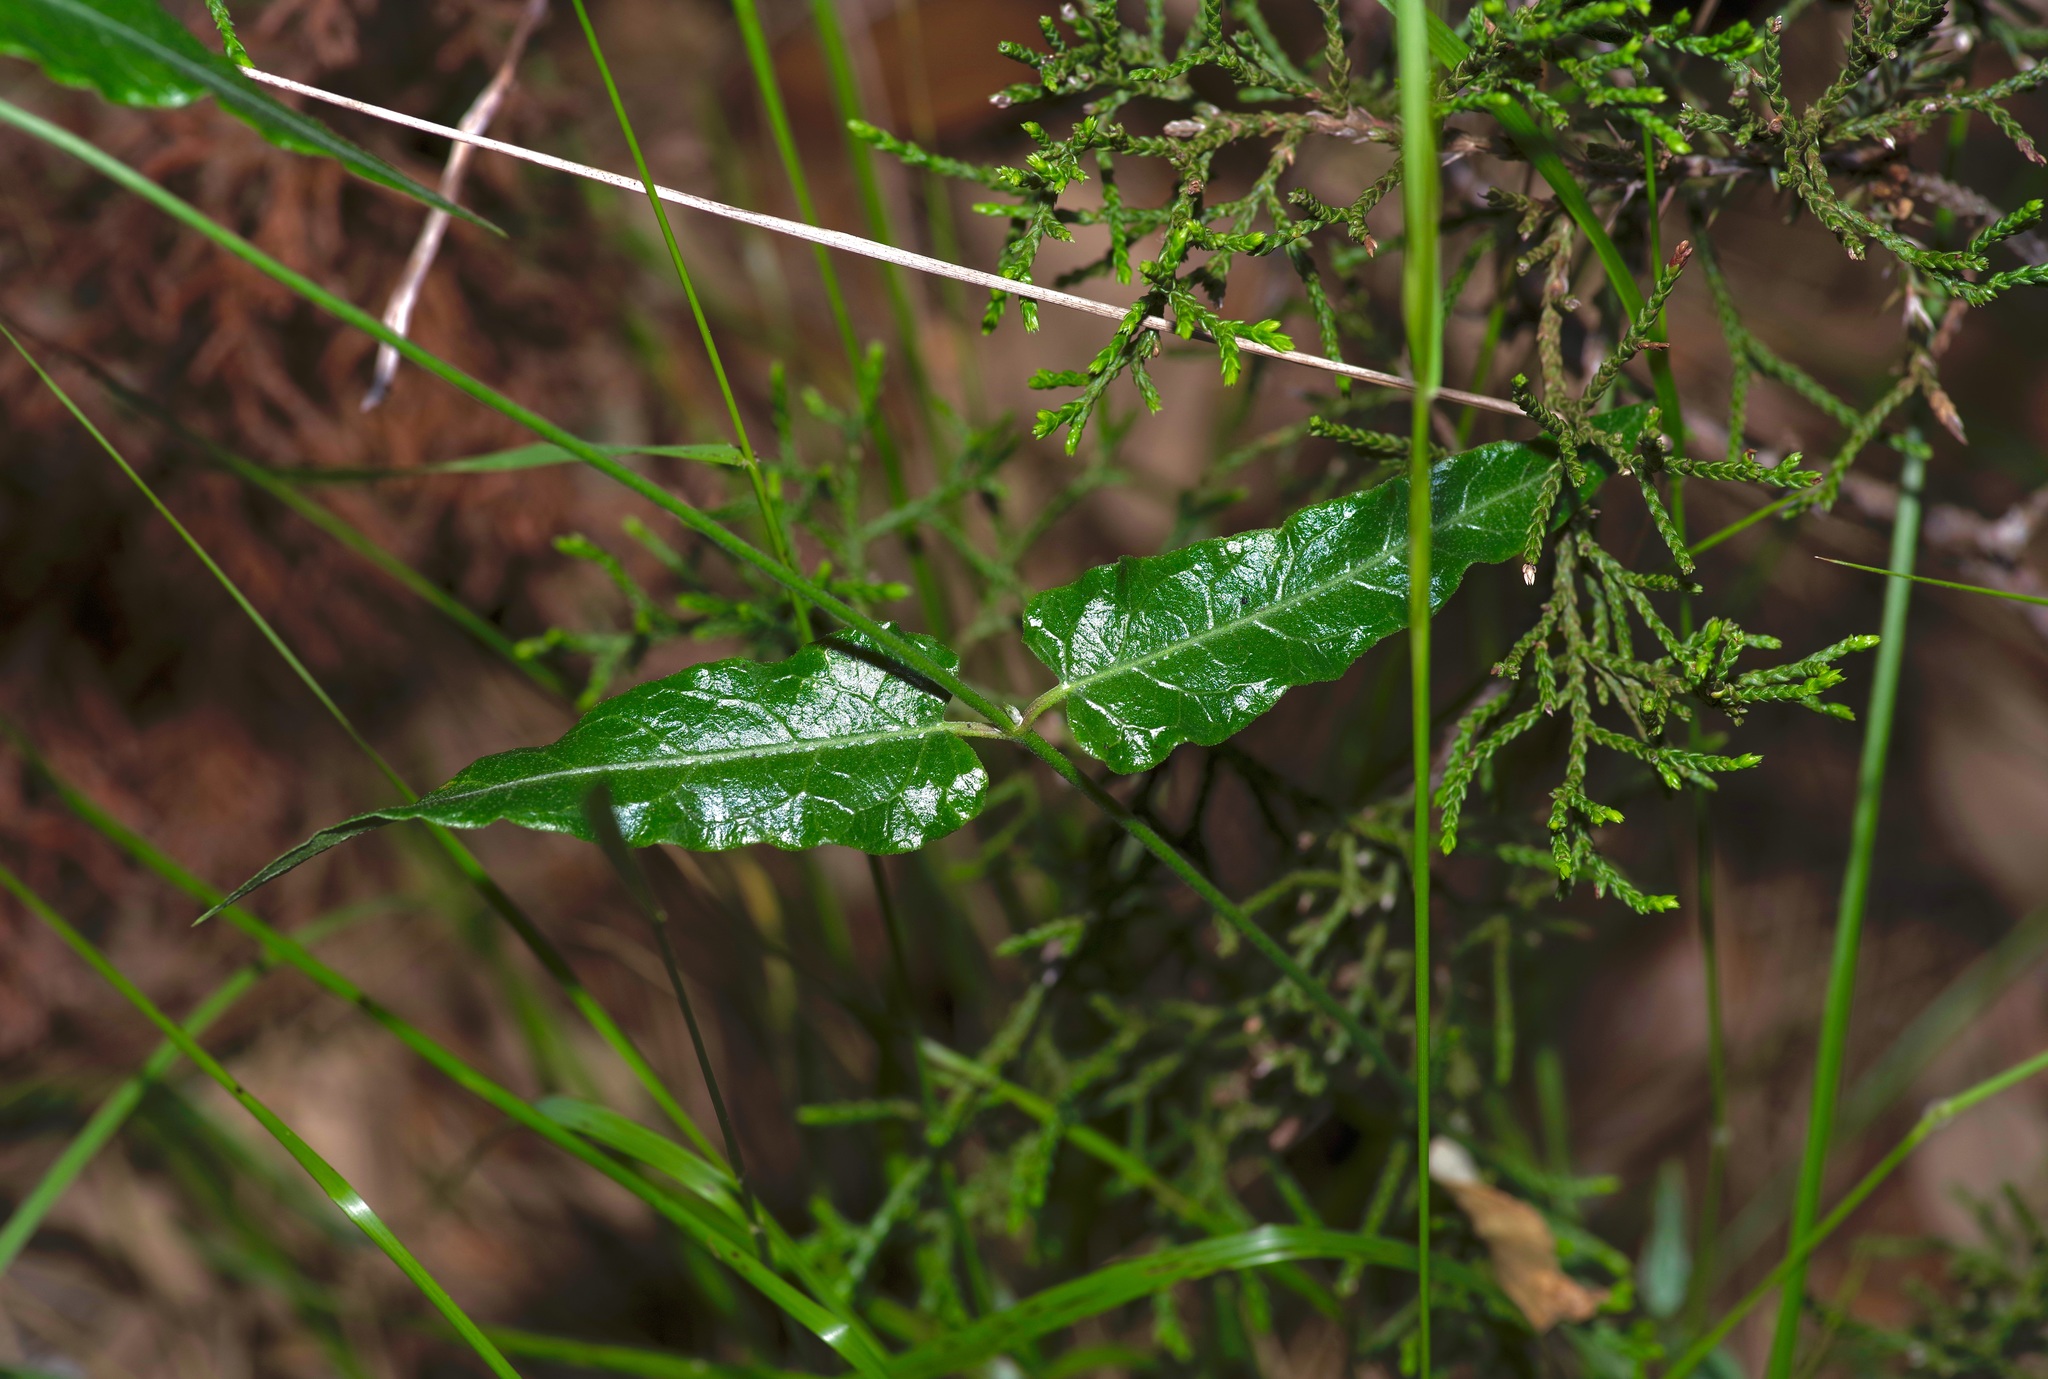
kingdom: Plantae
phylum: Tracheophyta
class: Magnoliopsida
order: Gentianales
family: Apocynaceae
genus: Funastrum
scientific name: Funastrum crispum
